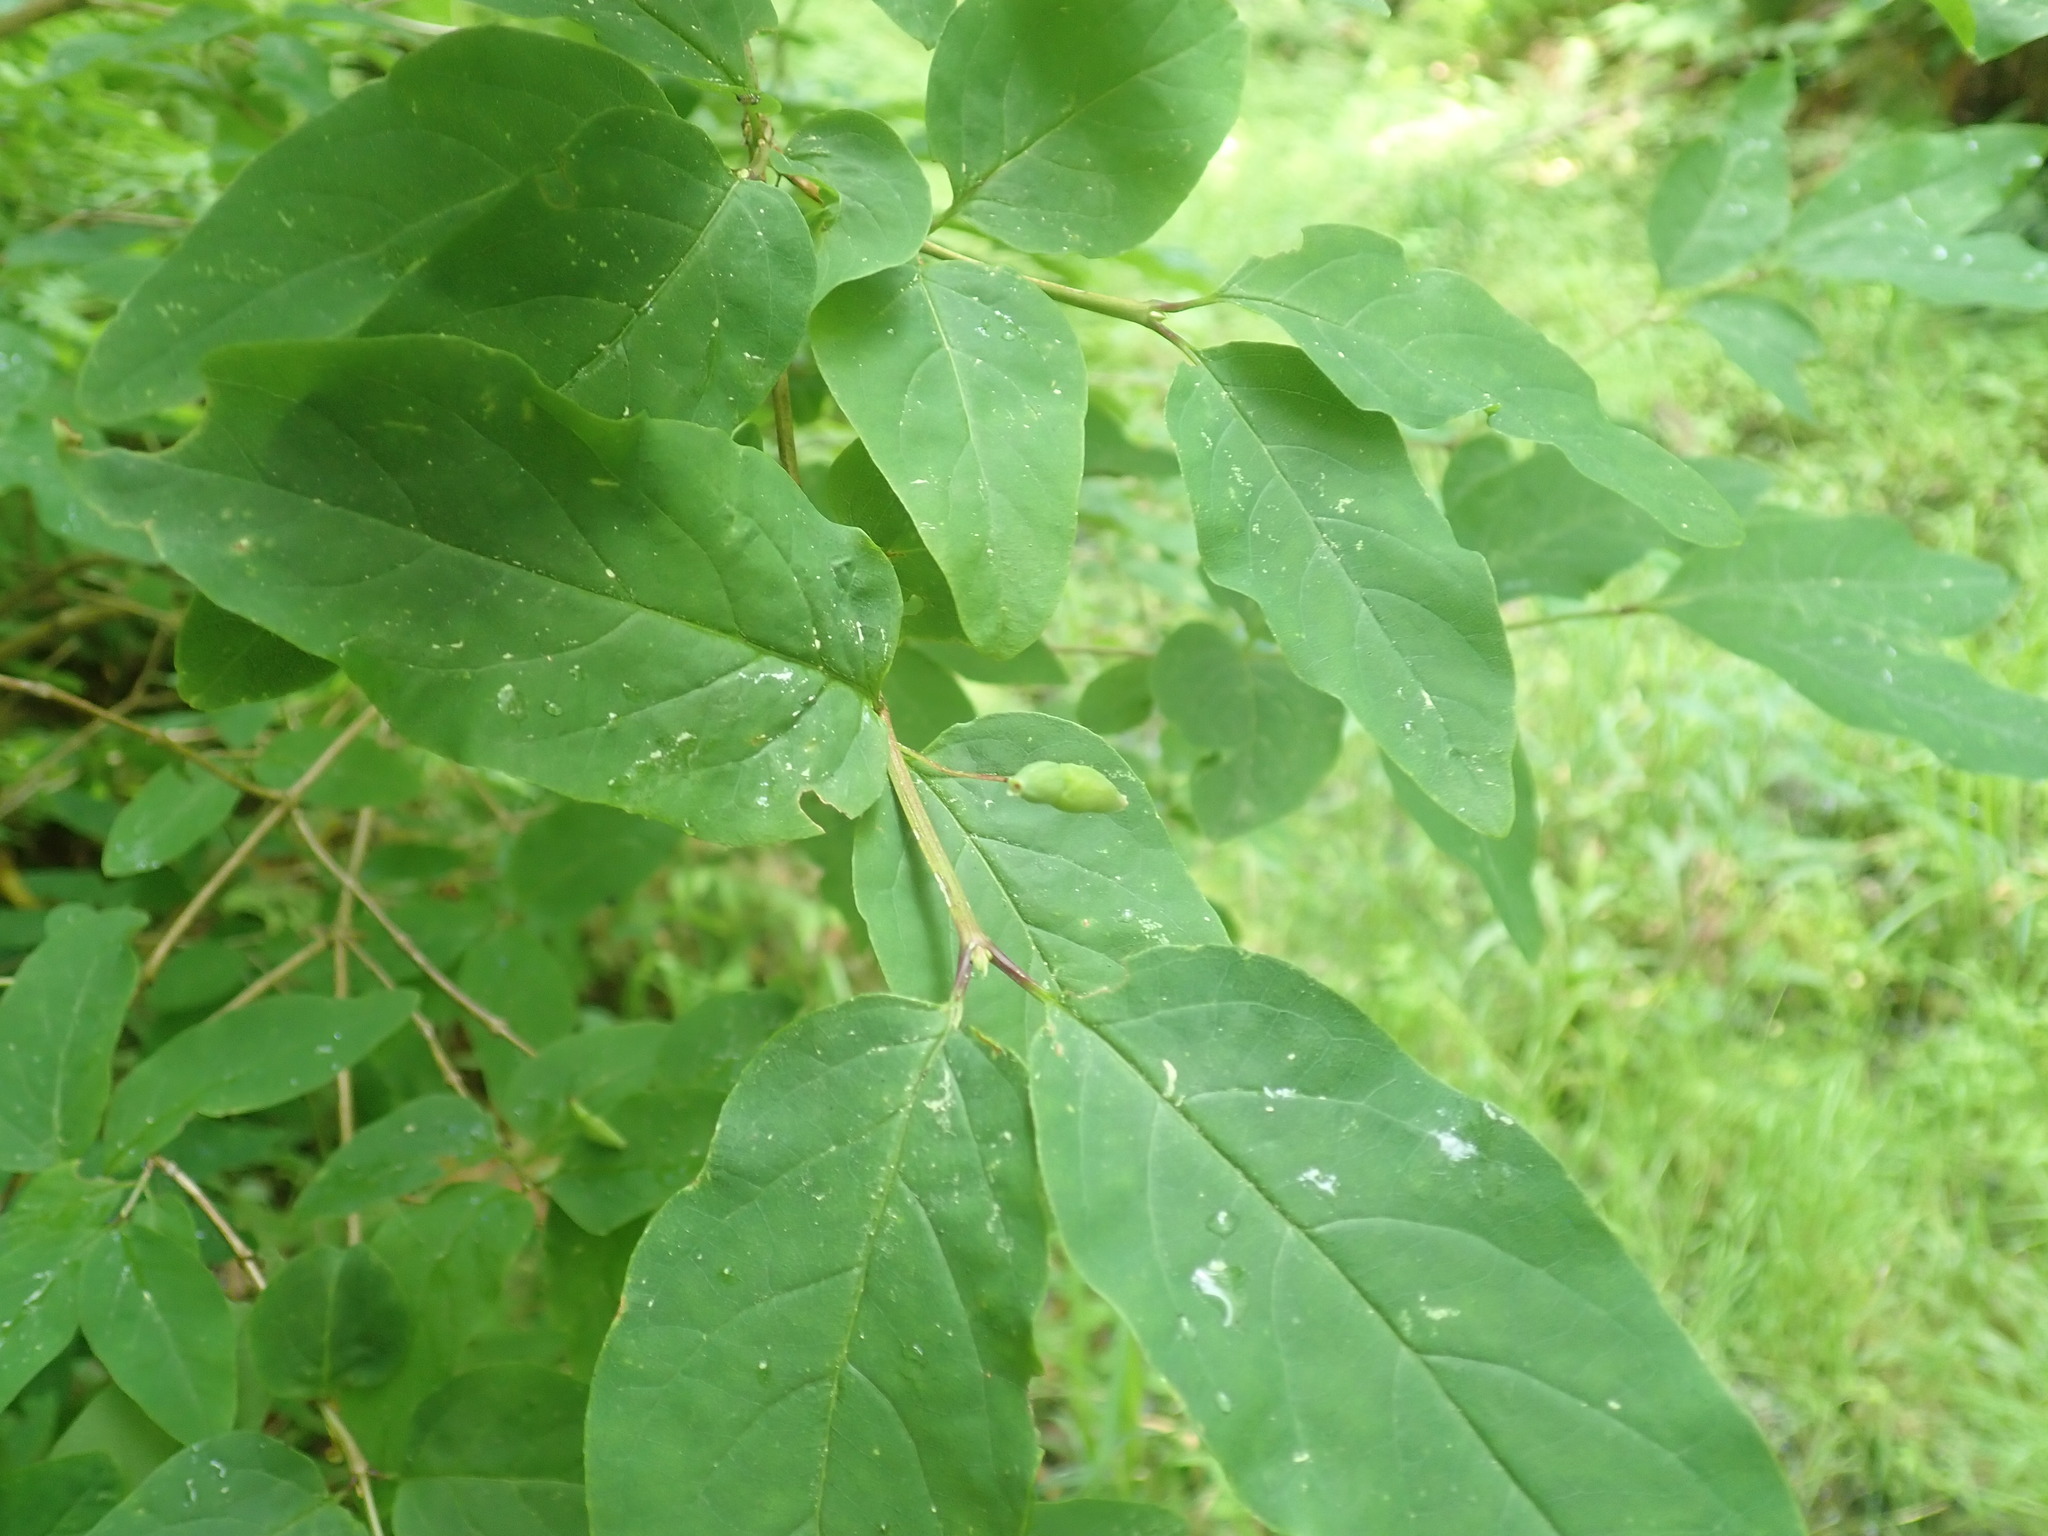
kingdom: Plantae
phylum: Tracheophyta
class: Magnoliopsida
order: Dipsacales
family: Caprifoliaceae
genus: Lonicera
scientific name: Lonicera canadensis
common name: American fly-honeysuckle
